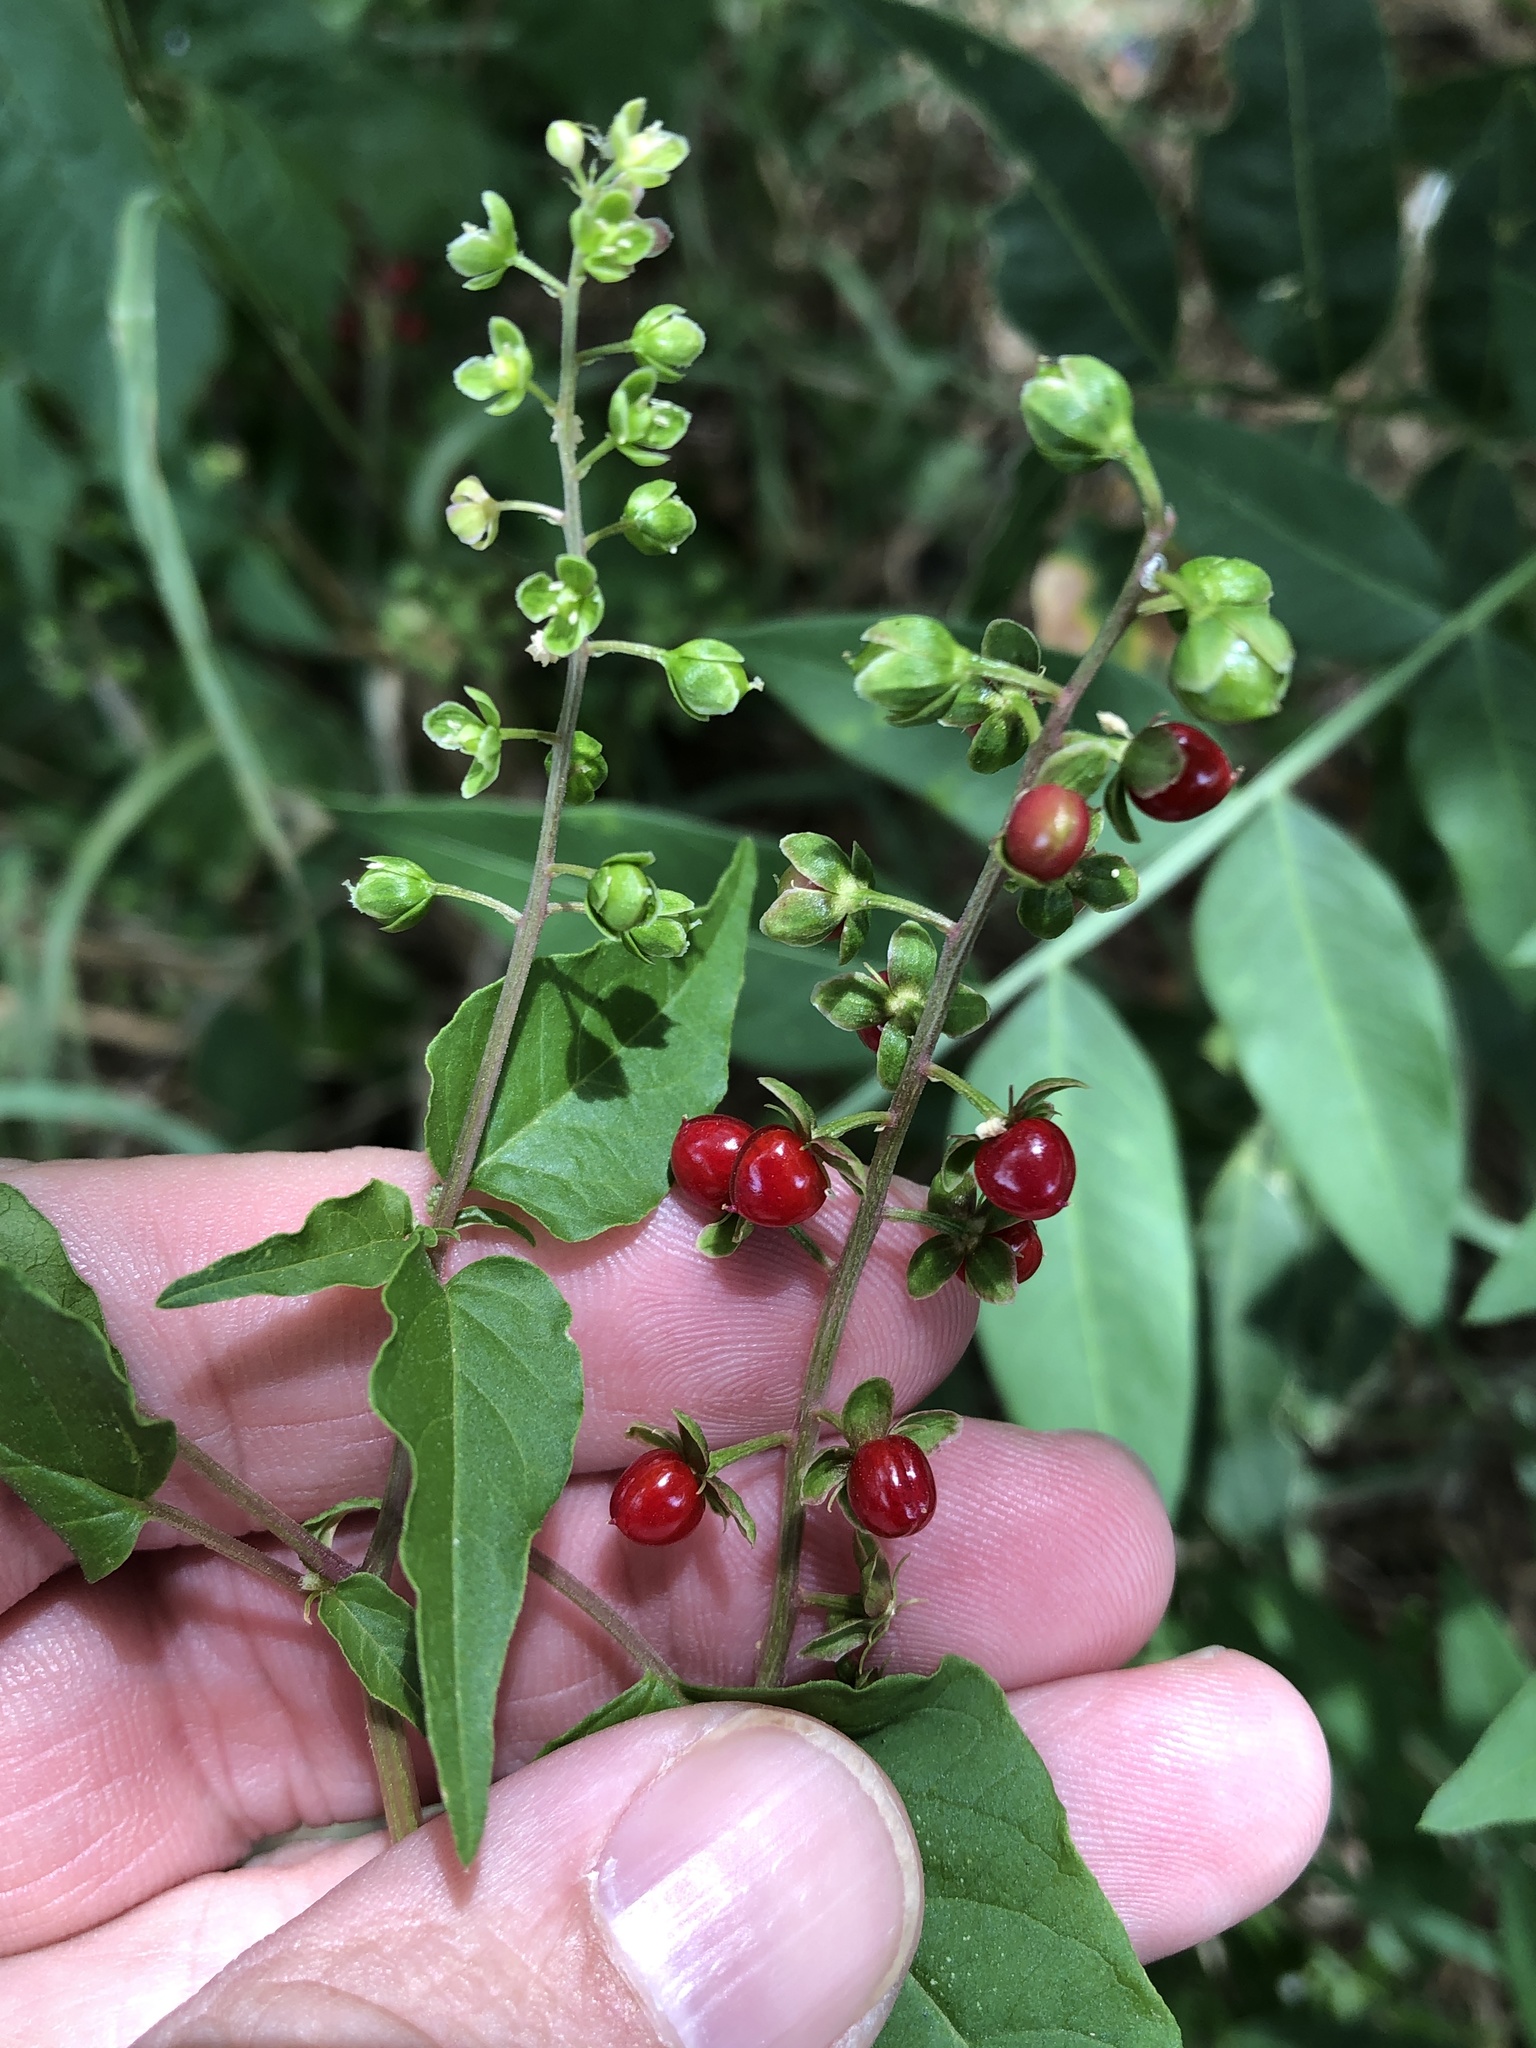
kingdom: Plantae
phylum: Tracheophyta
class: Magnoliopsida
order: Caryophyllales
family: Phytolaccaceae
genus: Rivina
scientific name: Rivina humilis
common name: Rougeplant
